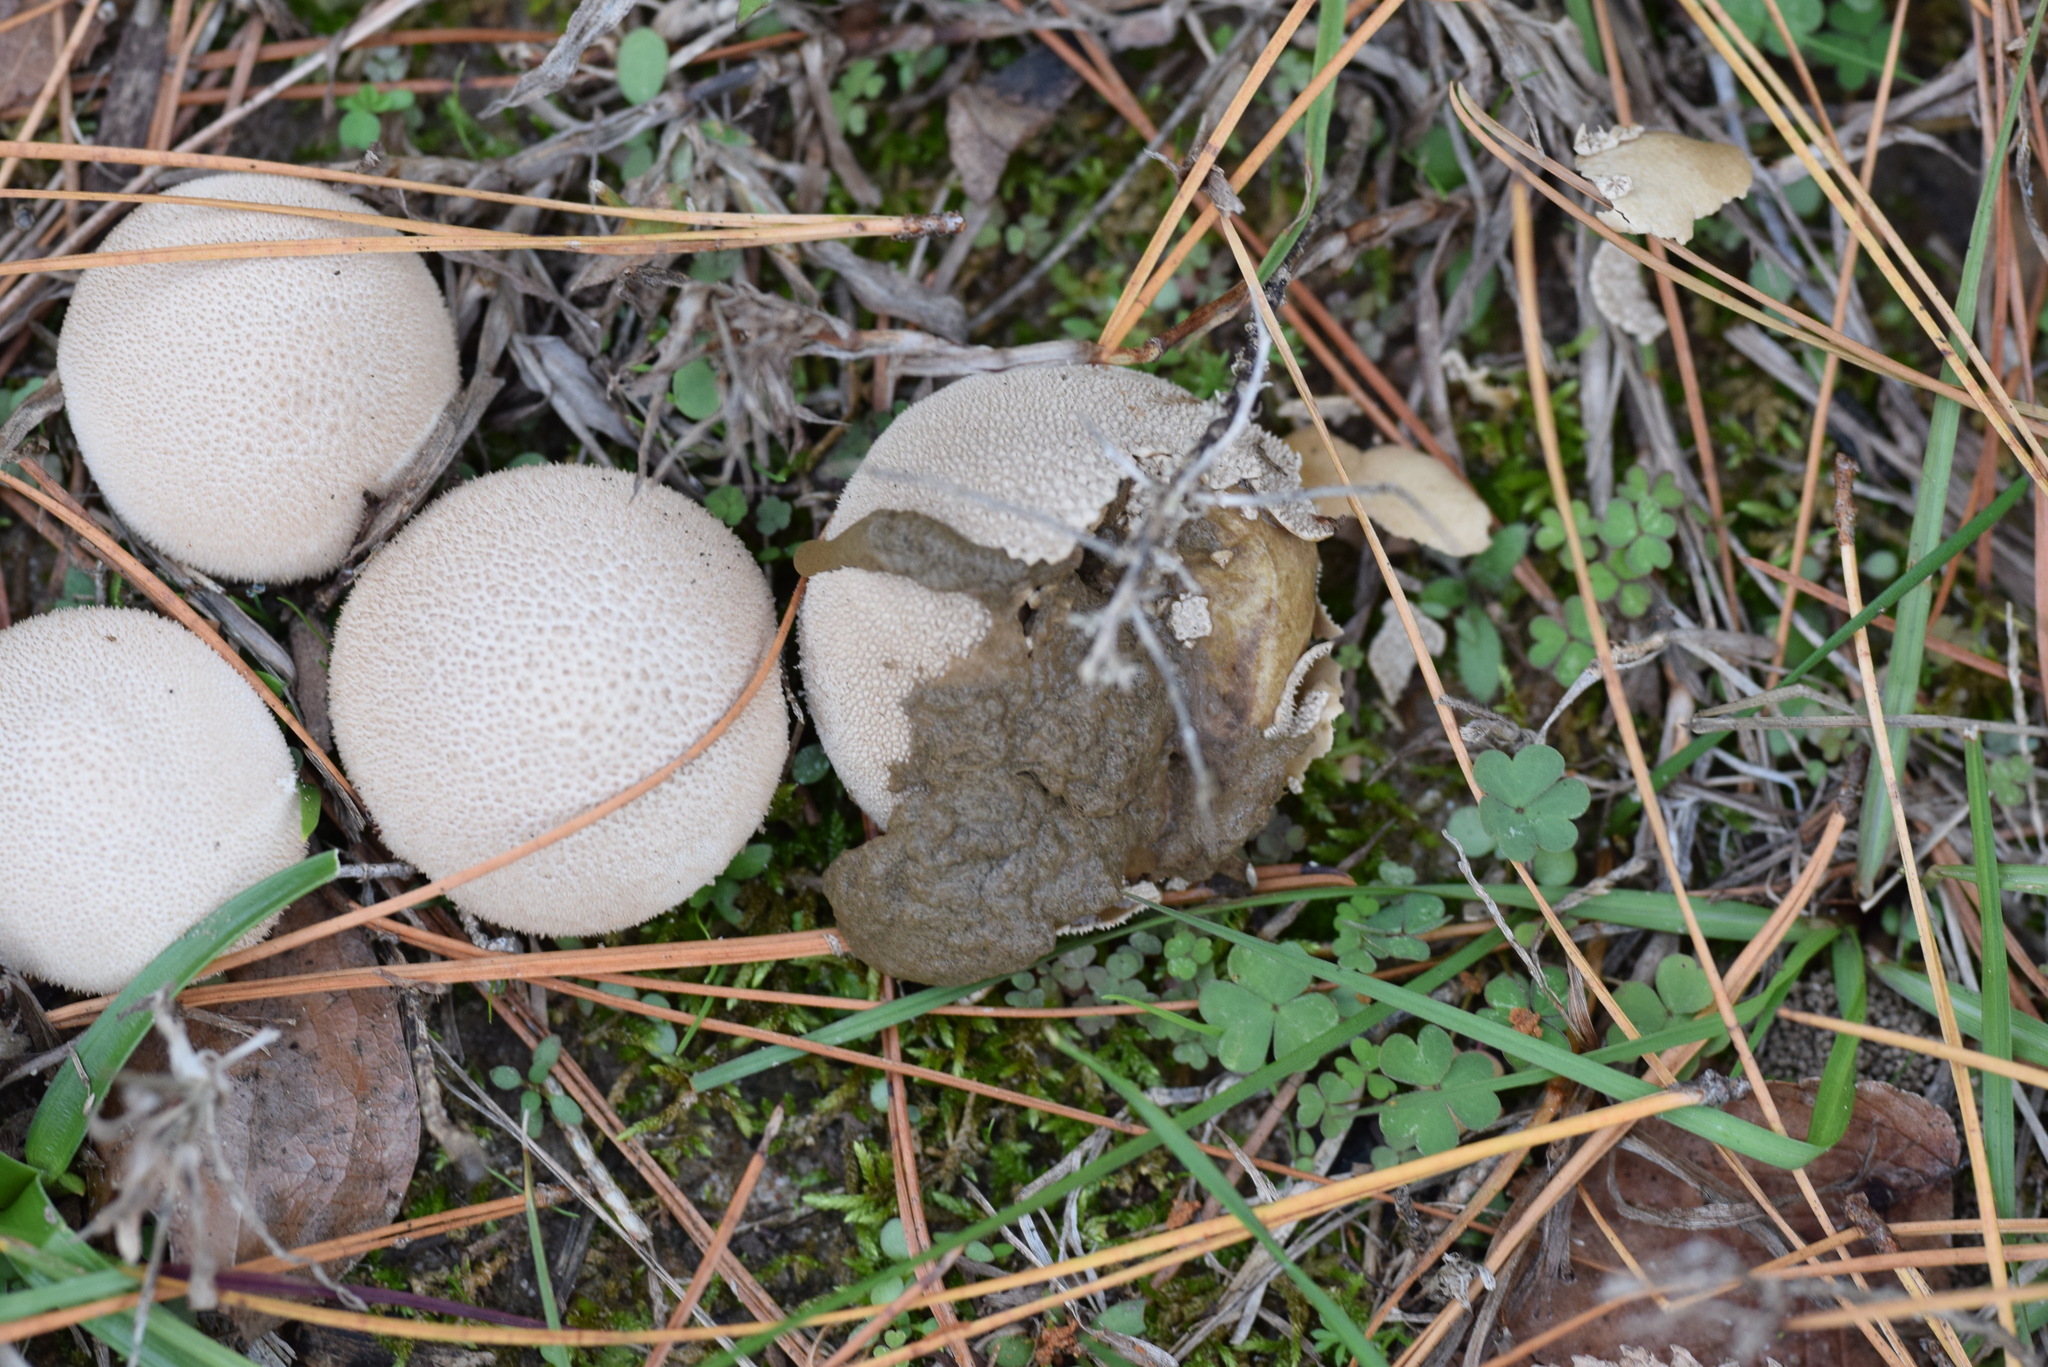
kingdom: Fungi
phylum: Basidiomycota
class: Agaricomycetes
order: Agaricales
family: Agaricaceae
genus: Lycoperdon
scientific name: Lycoperdon marginatum
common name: Peeling puffball
